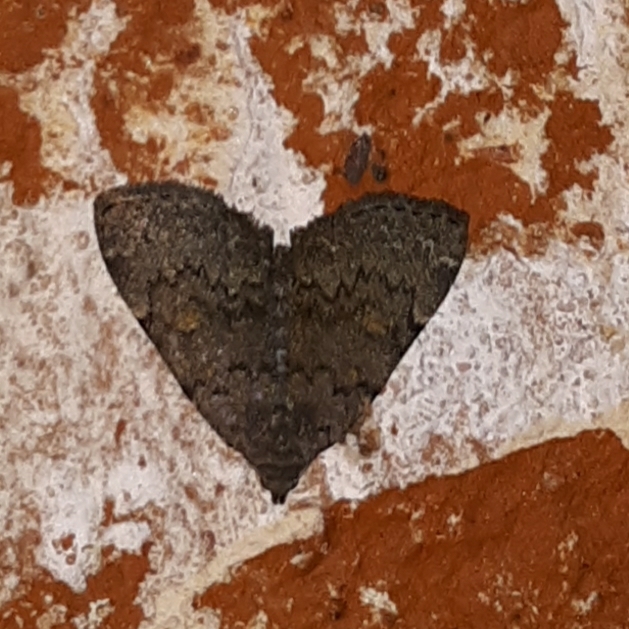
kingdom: Animalia
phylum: Arthropoda
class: Insecta
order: Lepidoptera
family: Erebidae
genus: Idia
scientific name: Idia aemula
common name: Common idia moth
